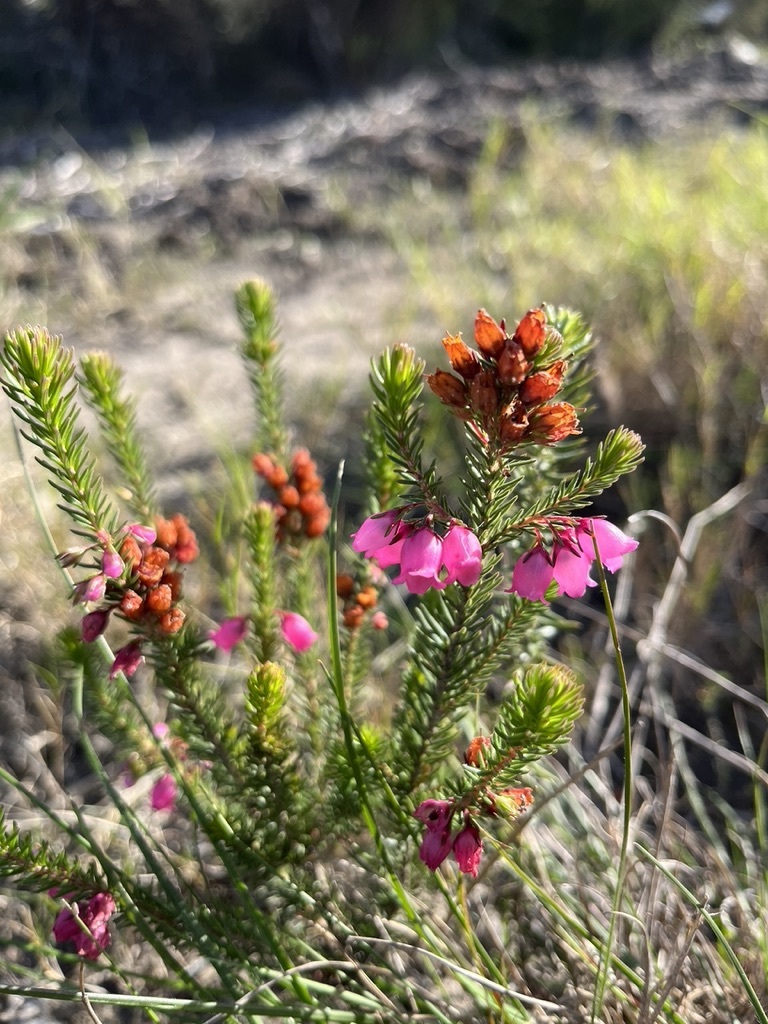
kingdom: Plantae
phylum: Tracheophyta
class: Magnoliopsida
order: Ericales
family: Ericaceae
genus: Erica
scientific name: Erica axilliflora
